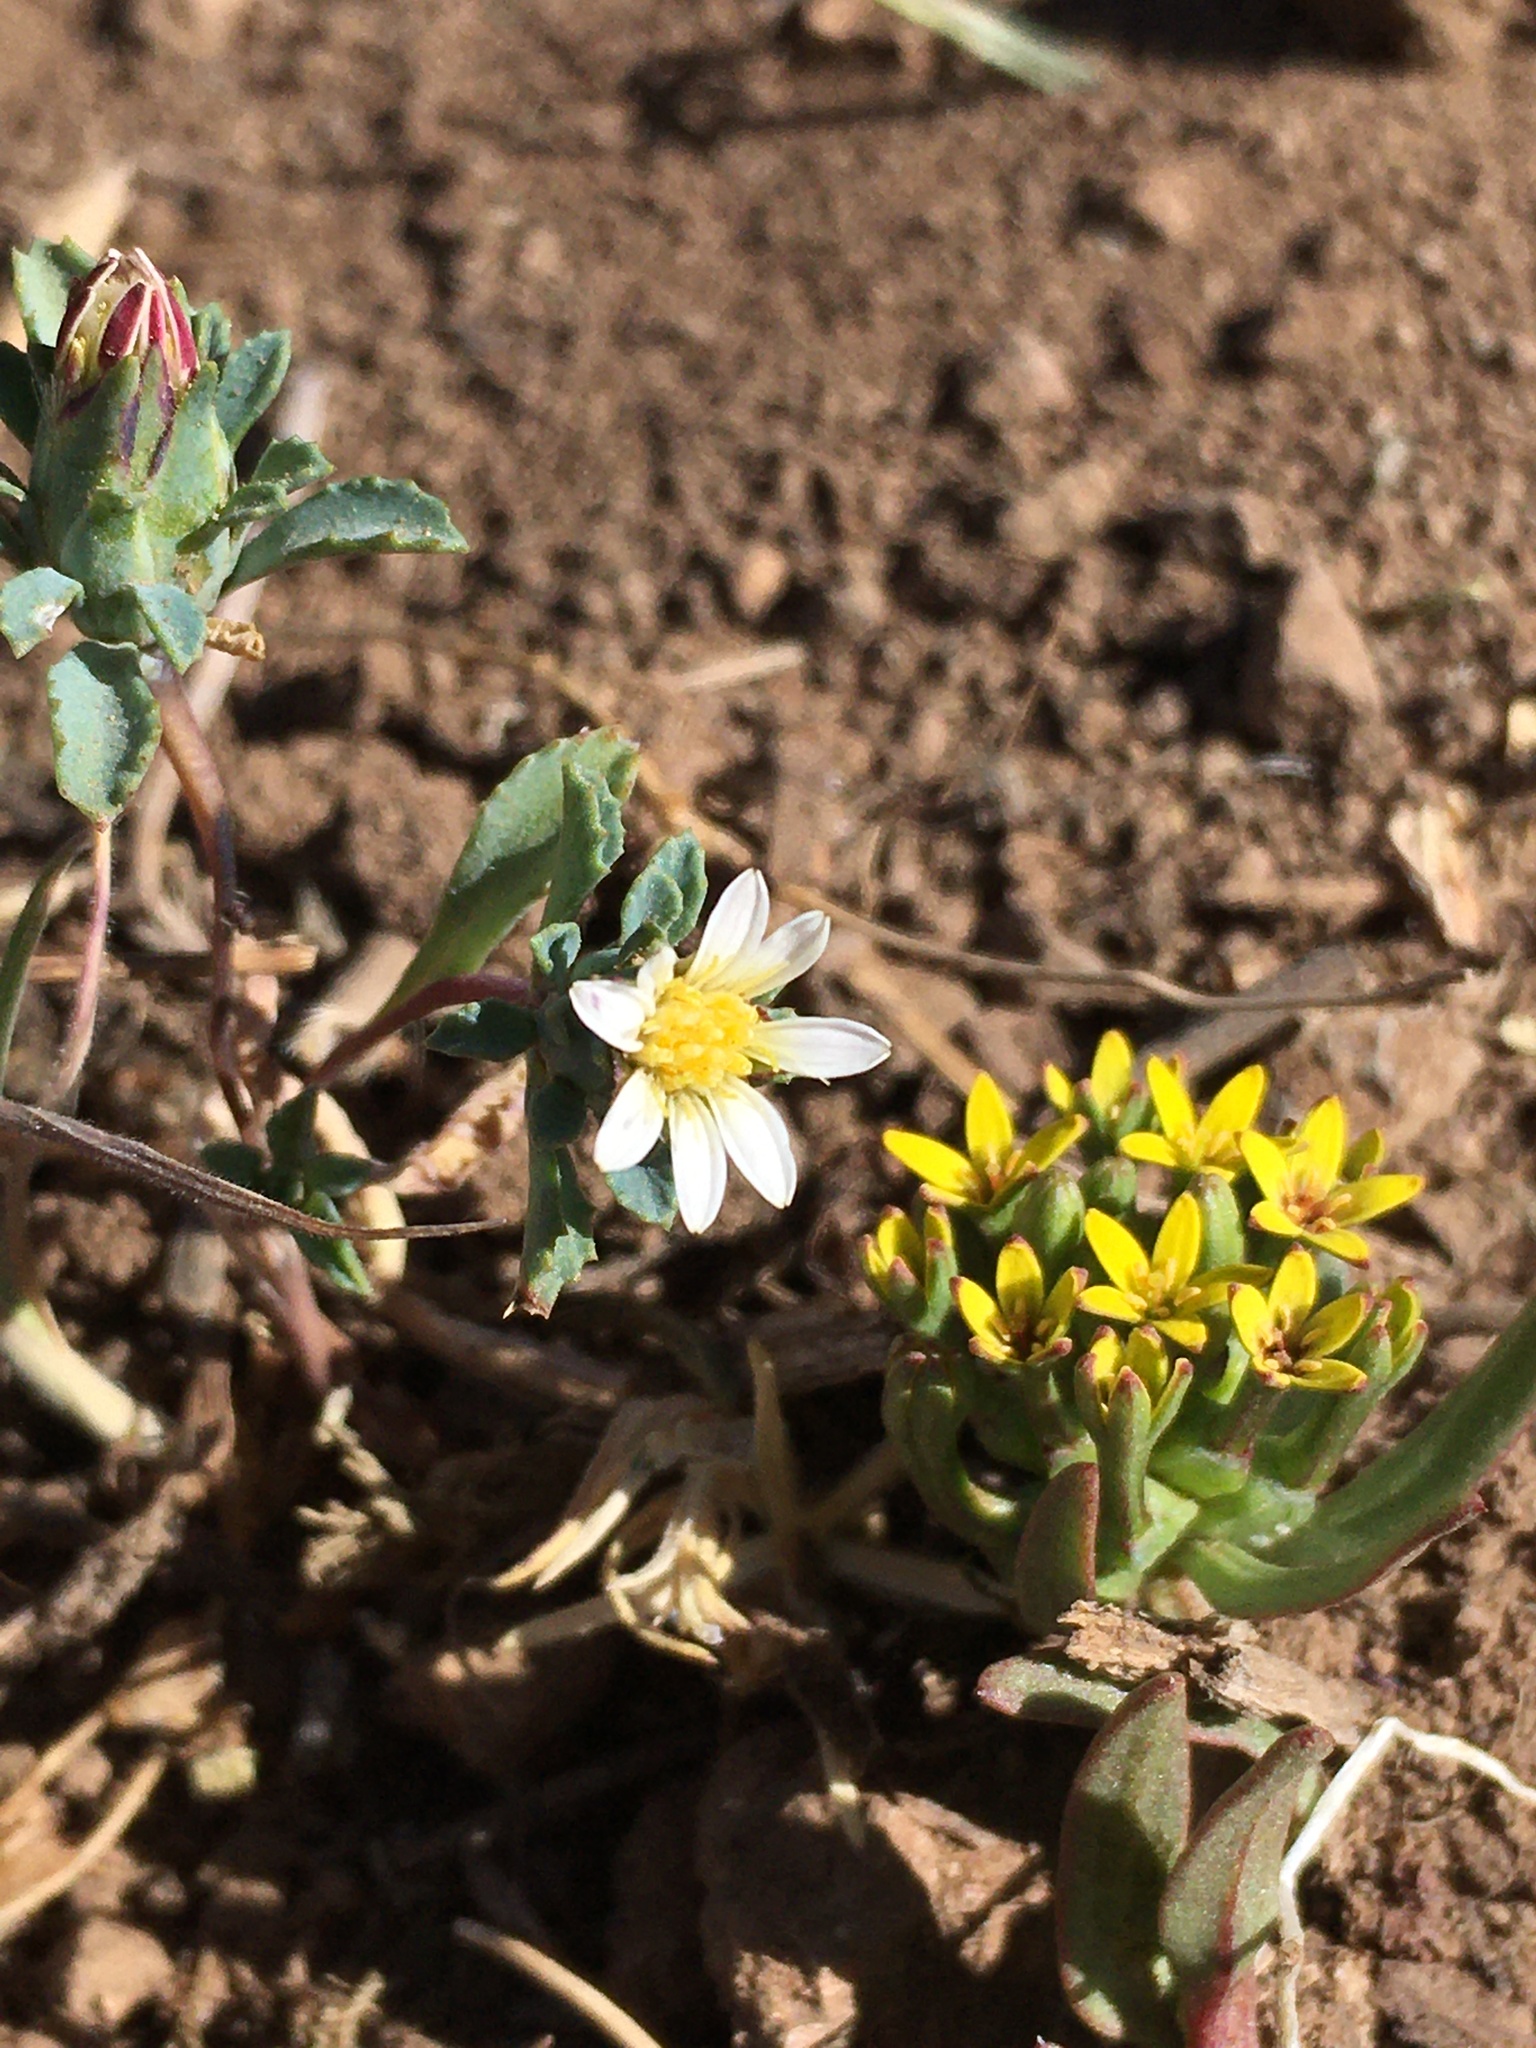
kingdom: Plantae
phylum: Tracheophyta
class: Magnoliopsida
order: Asterales
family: Asteraceae
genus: Chaetanthera
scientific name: Chaetanthera euphrasioides
